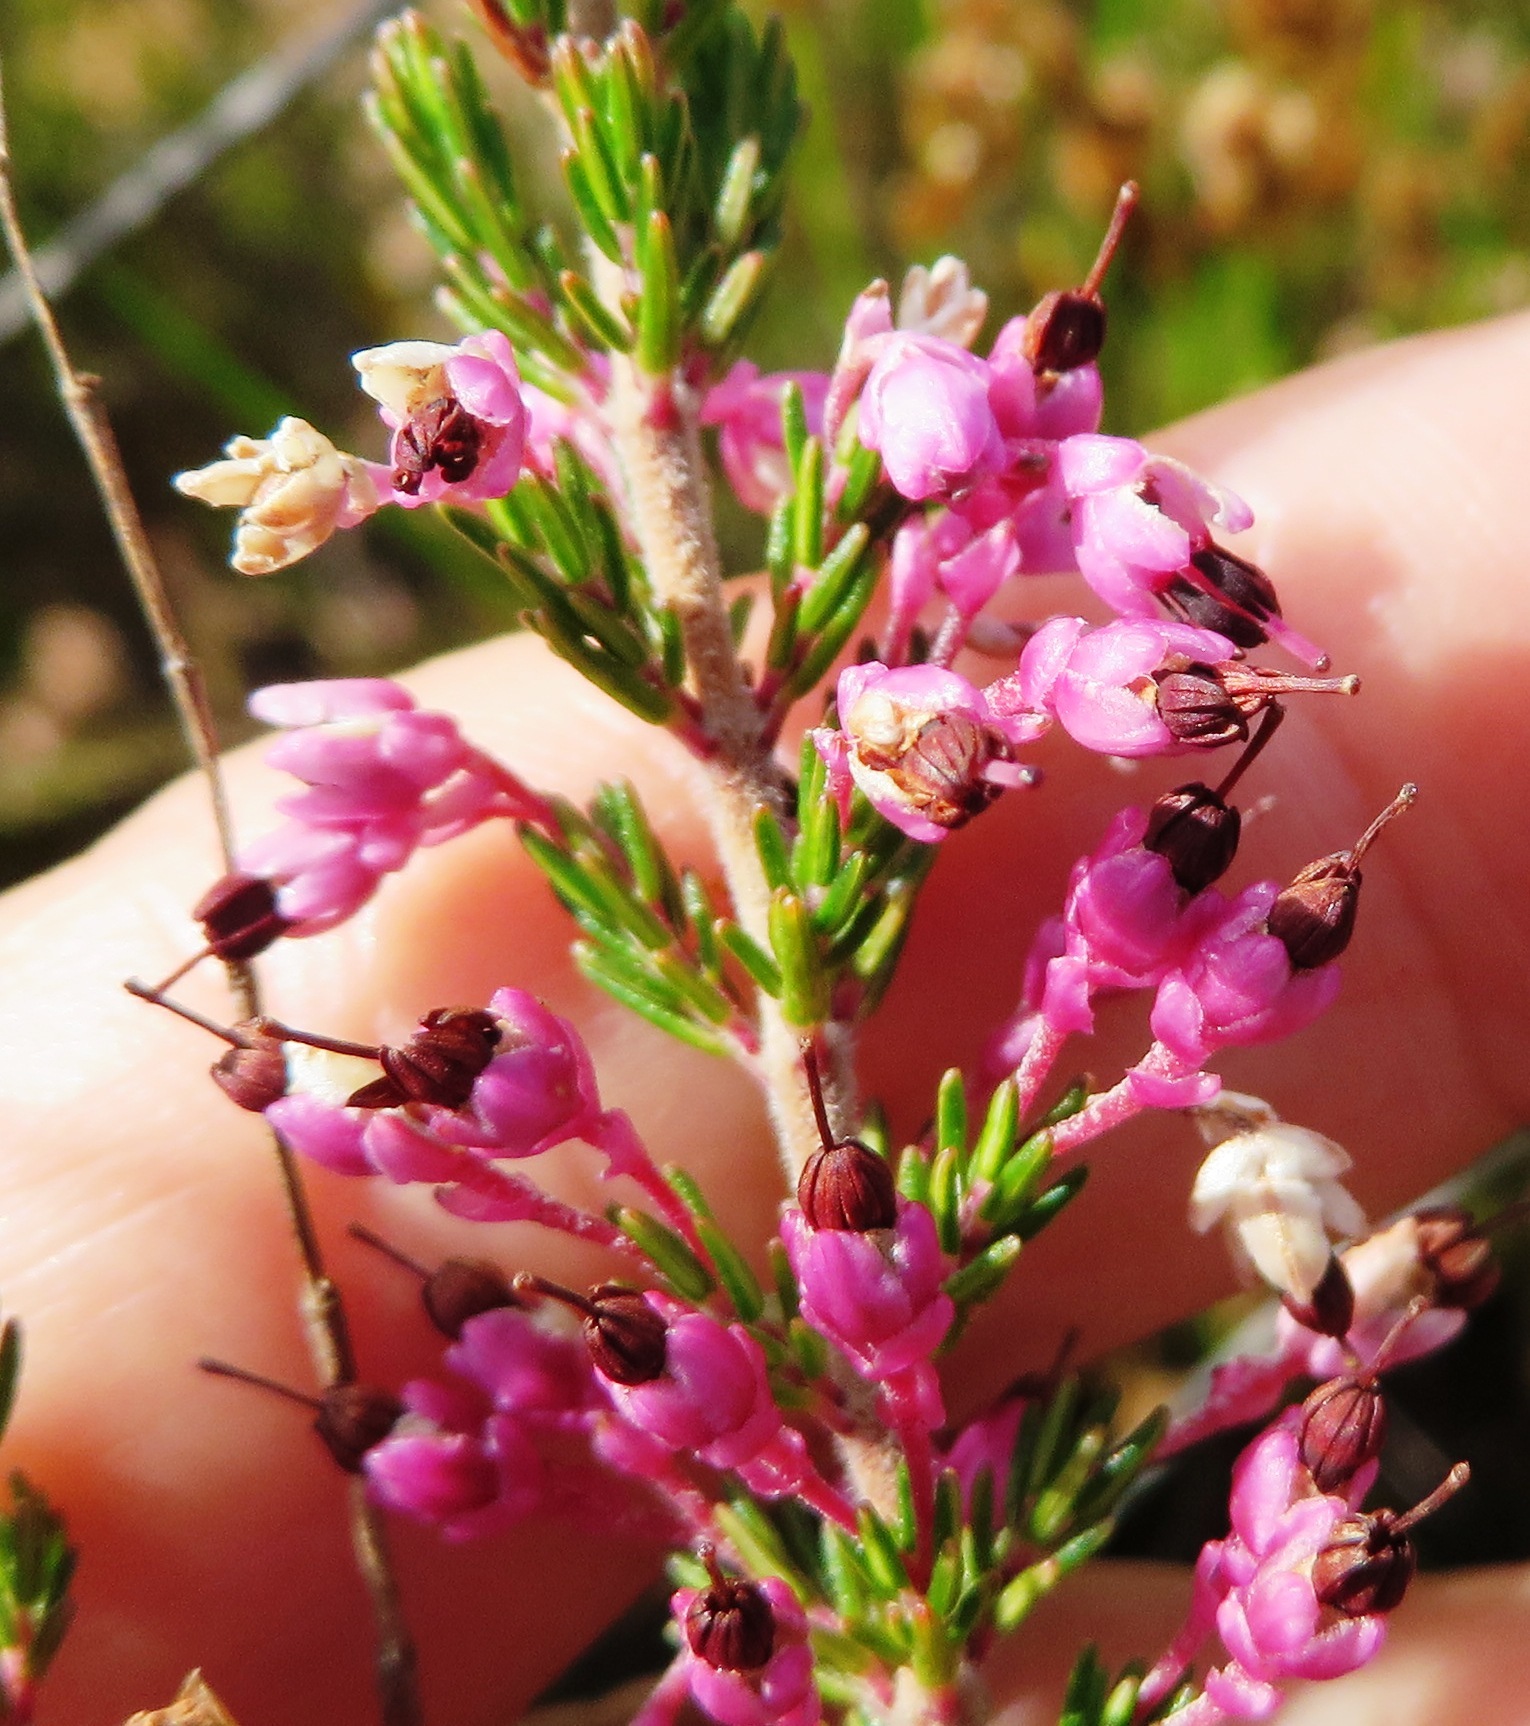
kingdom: Plantae
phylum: Tracheophyta
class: Magnoliopsida
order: Ericales
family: Ericaceae
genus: Erica
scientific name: Erica placentiflora
